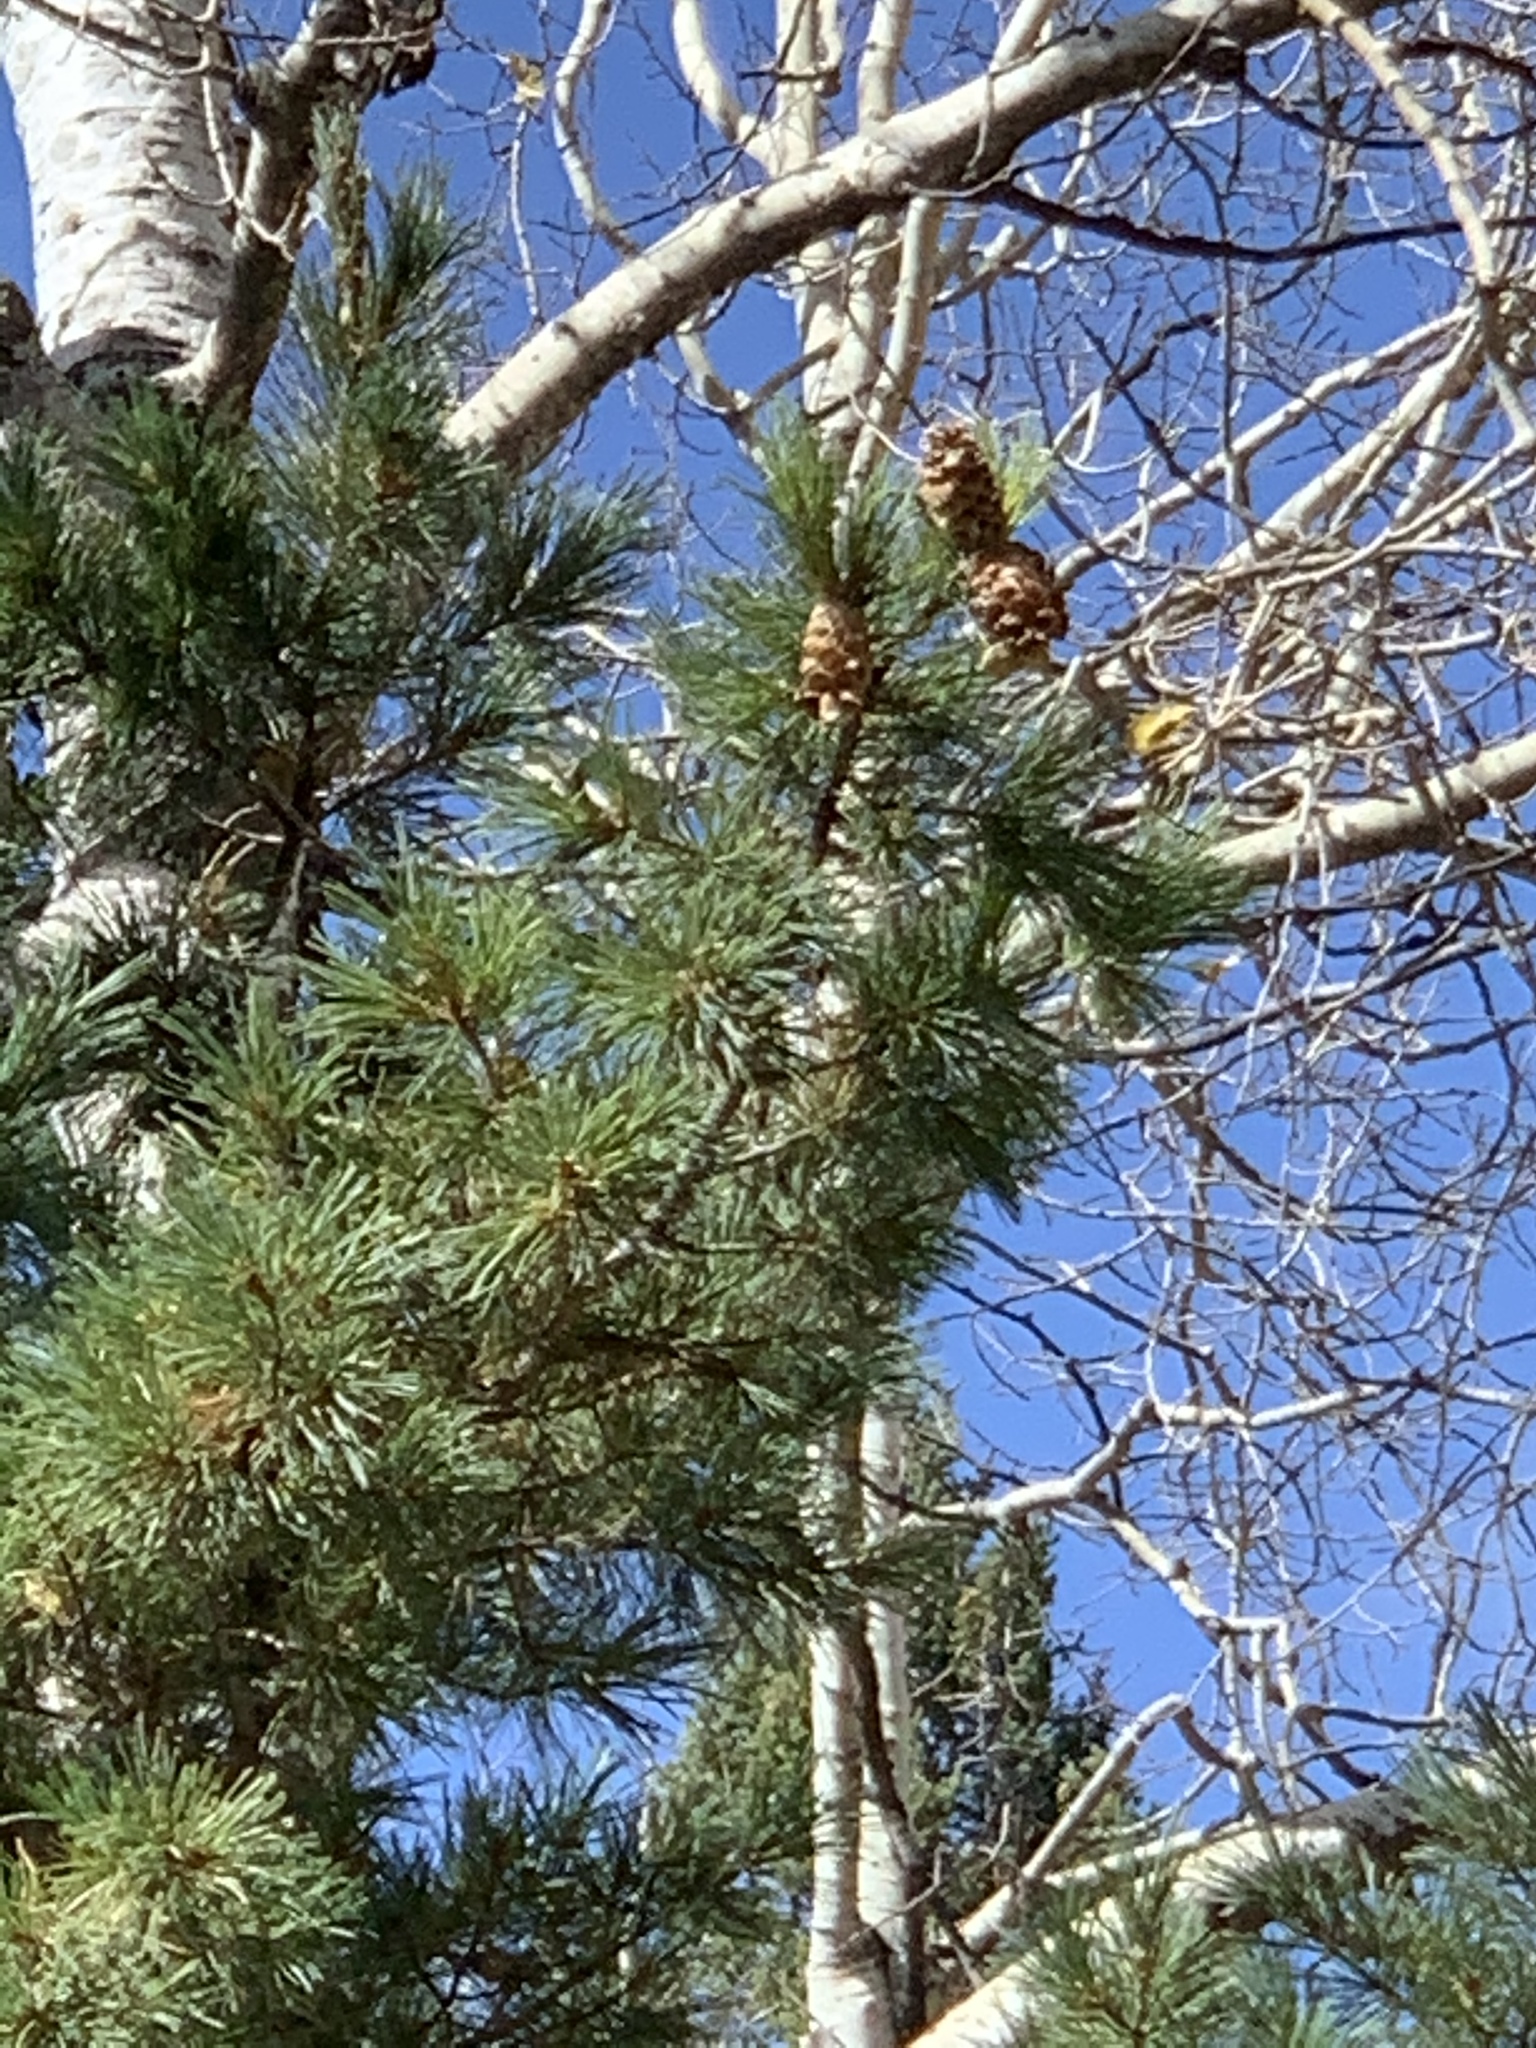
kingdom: Plantae
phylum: Tracheophyta
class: Pinopsida
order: Pinales
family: Pinaceae
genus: Pinus
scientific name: Pinus strobiformis
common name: Southwestern white pine
